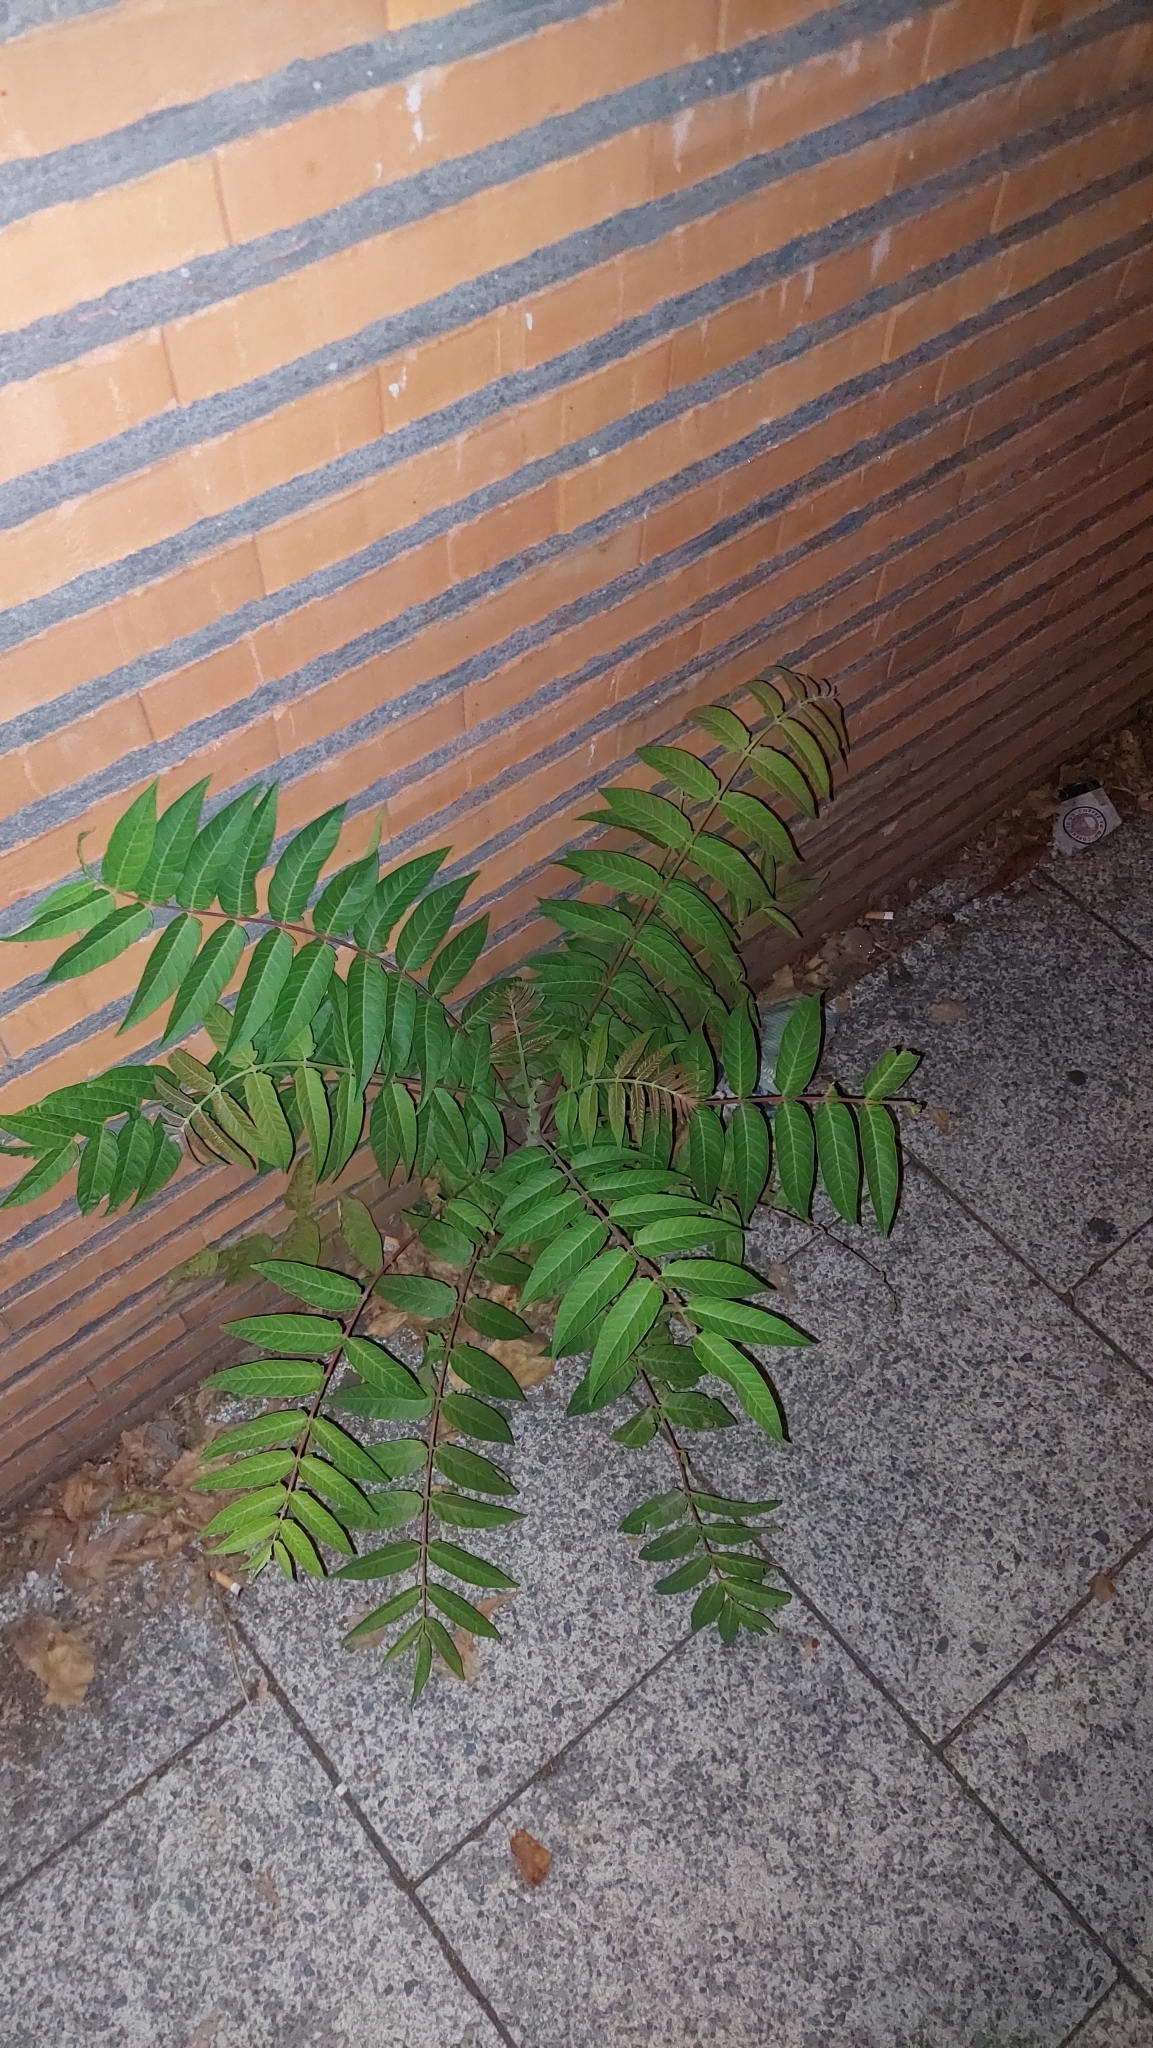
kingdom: Plantae
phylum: Tracheophyta
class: Magnoliopsida
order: Sapindales
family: Simaroubaceae
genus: Ailanthus
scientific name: Ailanthus altissima
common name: Tree-of-heaven
